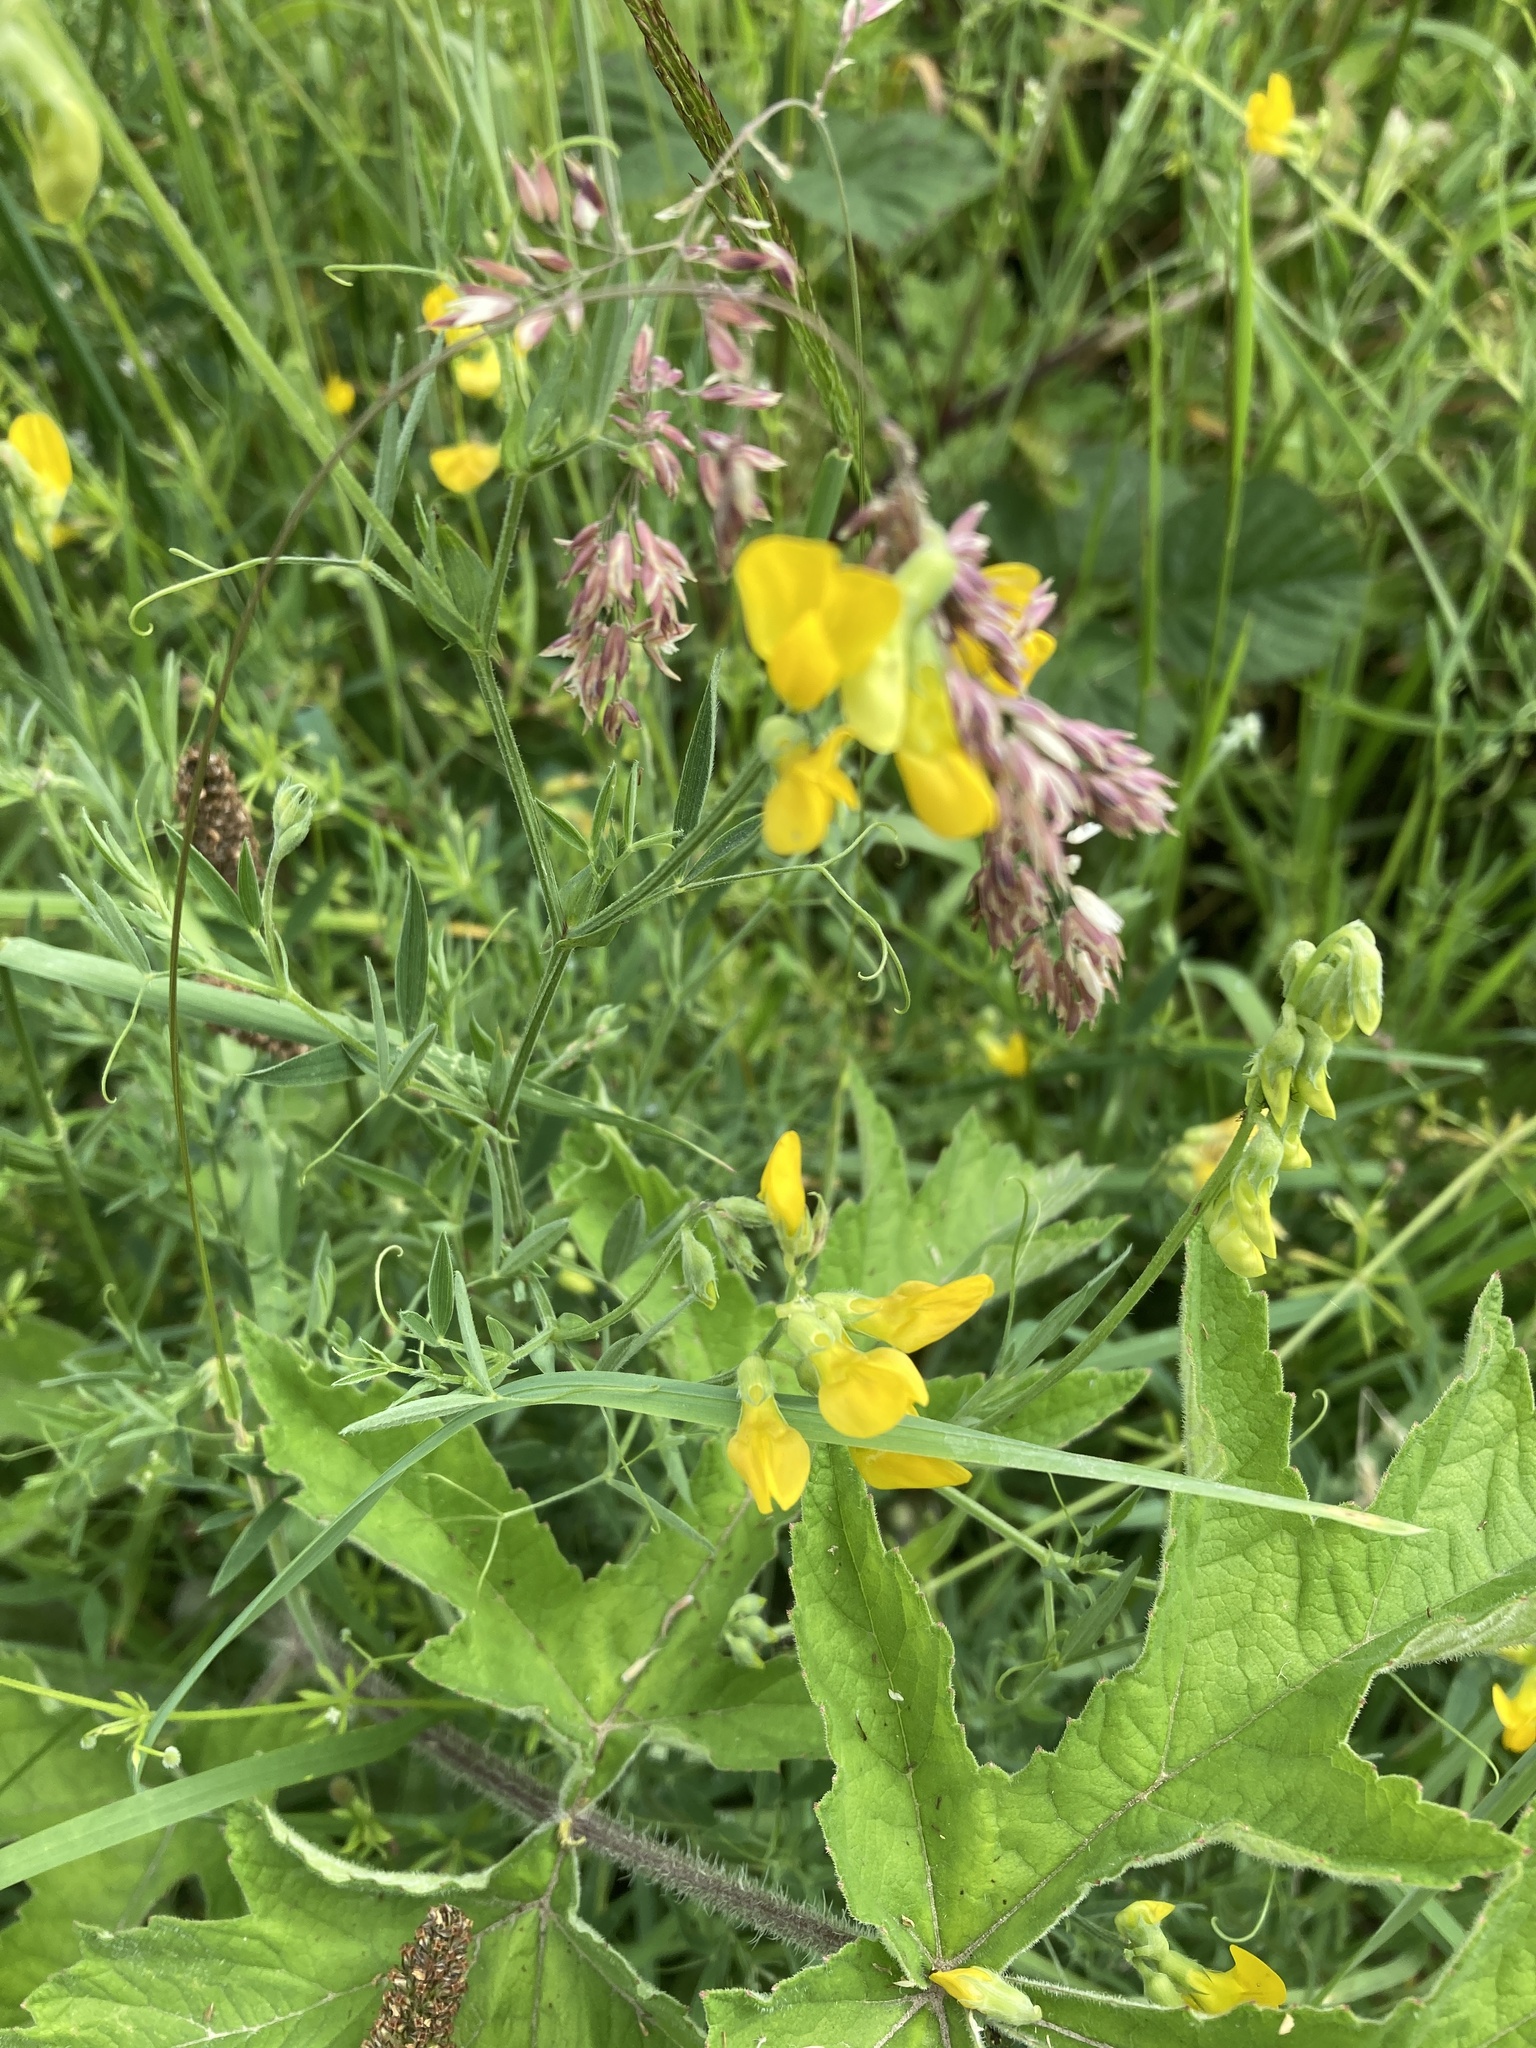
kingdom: Plantae
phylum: Tracheophyta
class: Magnoliopsida
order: Fabales
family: Fabaceae
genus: Lathyrus
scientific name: Lathyrus pratensis
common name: Meadow vetchling
